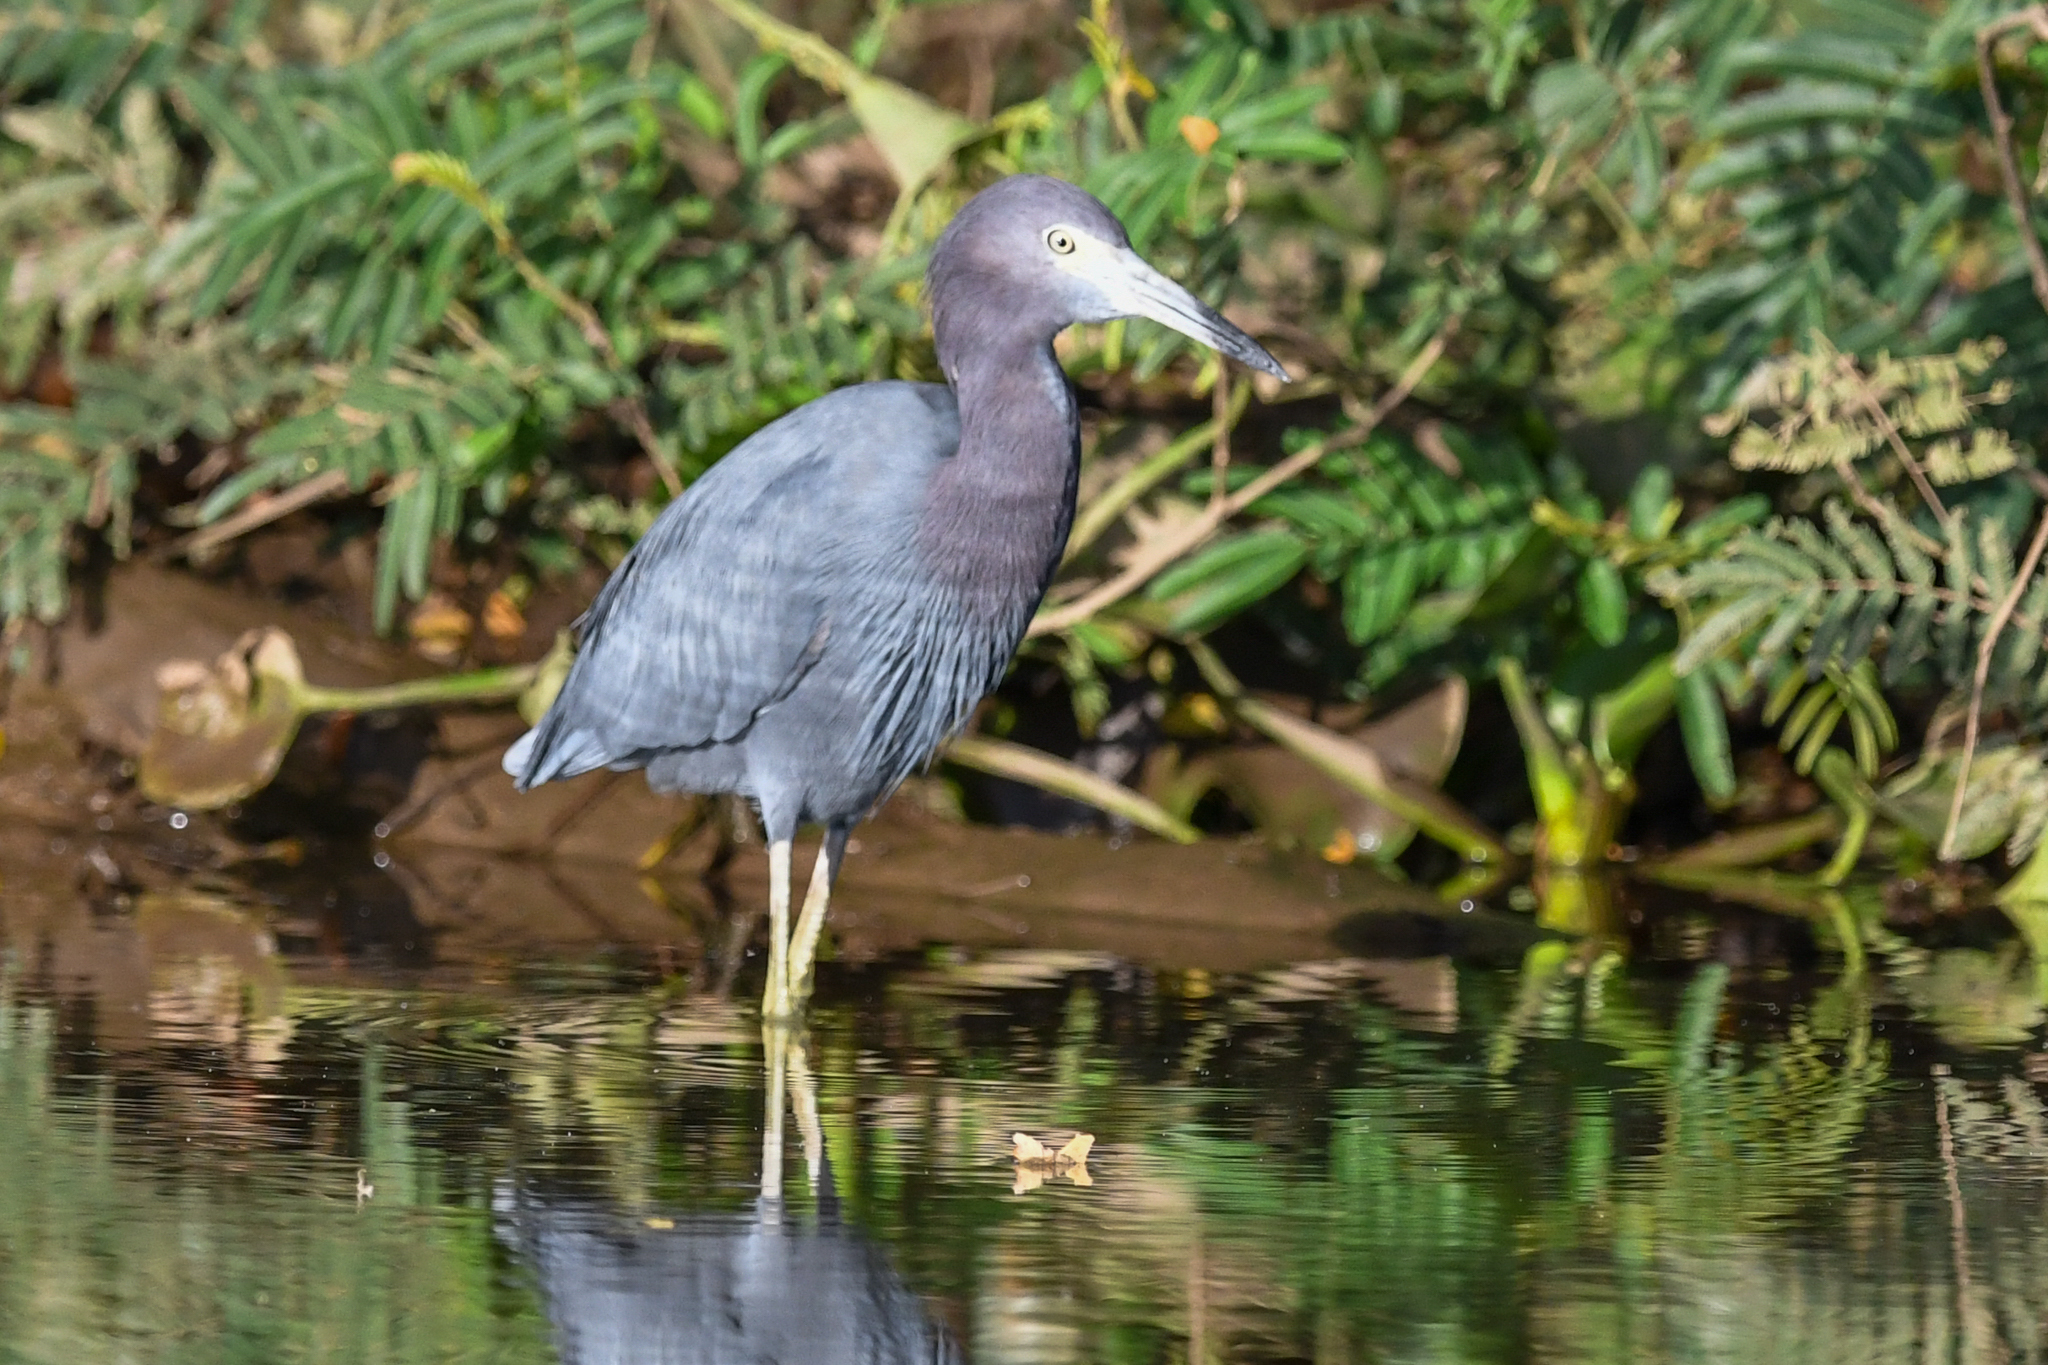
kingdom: Animalia
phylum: Chordata
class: Aves
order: Pelecaniformes
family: Ardeidae
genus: Egretta
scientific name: Egretta caerulea
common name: Little blue heron
